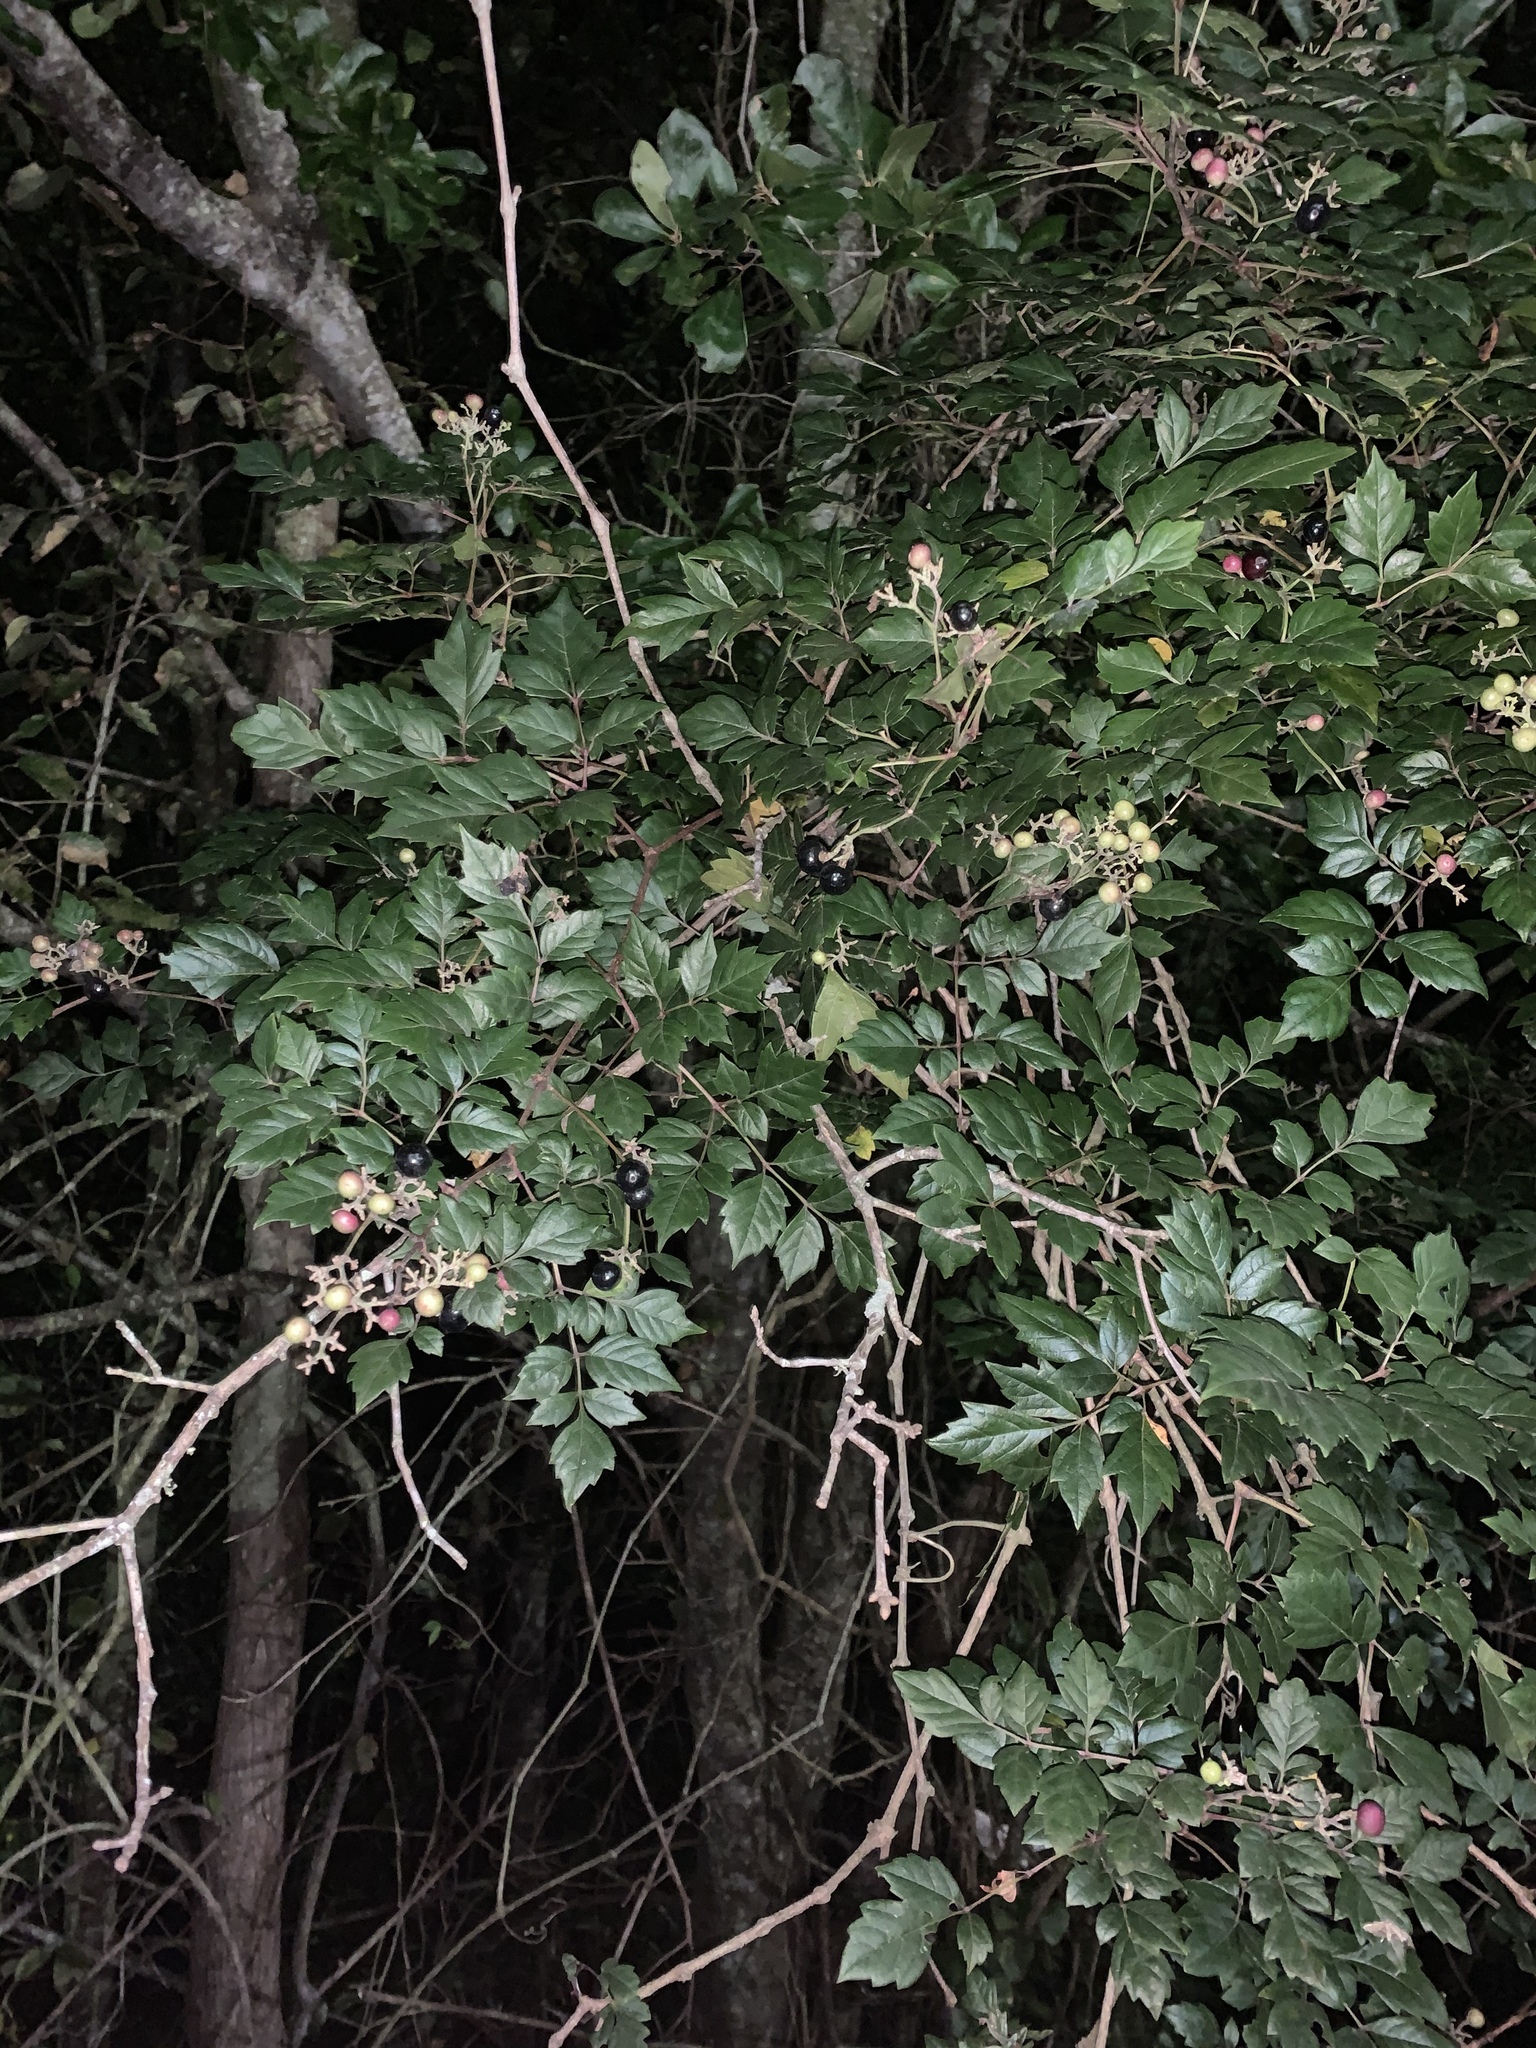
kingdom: Plantae
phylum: Tracheophyta
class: Magnoliopsida
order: Vitales
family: Vitaceae
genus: Nekemias
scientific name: Nekemias arborea
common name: Peppervine
